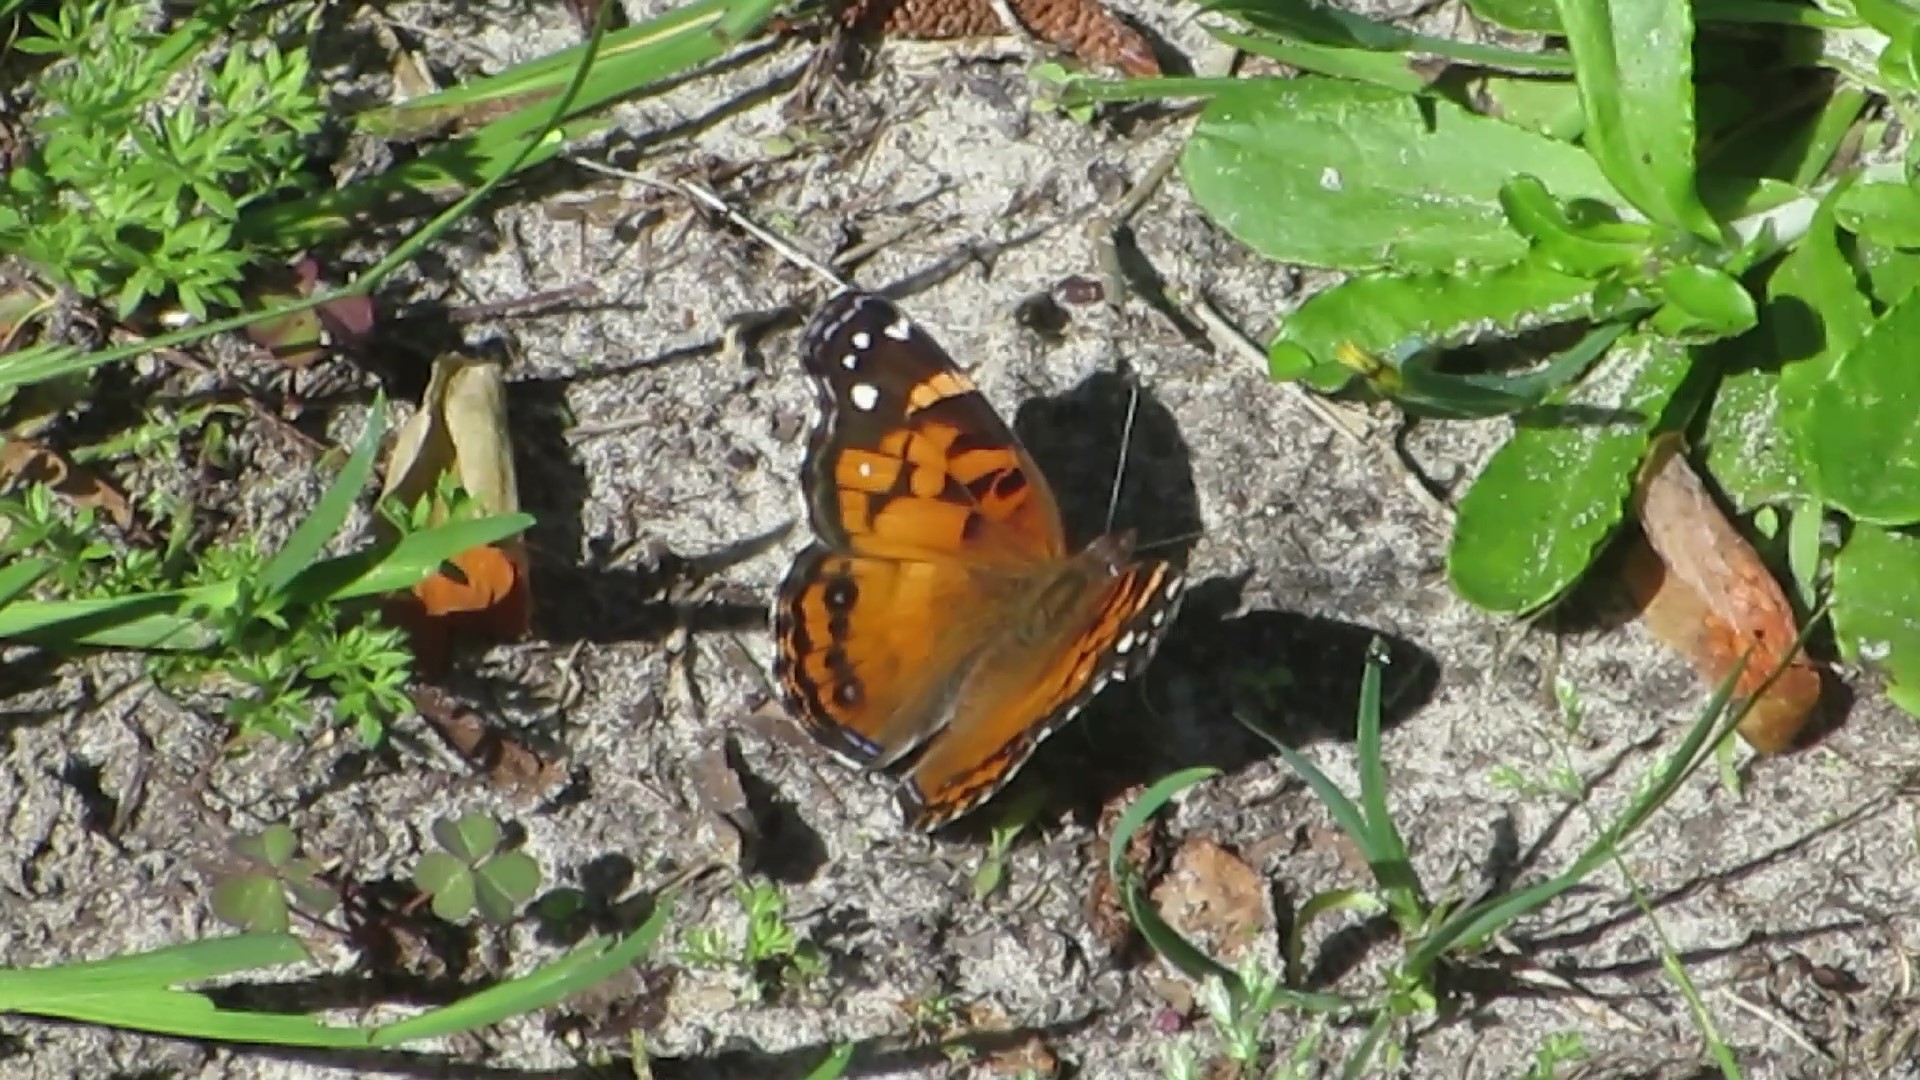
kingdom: Animalia
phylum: Arthropoda
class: Insecta
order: Lepidoptera
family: Nymphalidae
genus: Vanessa
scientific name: Vanessa virginiensis
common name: American lady
